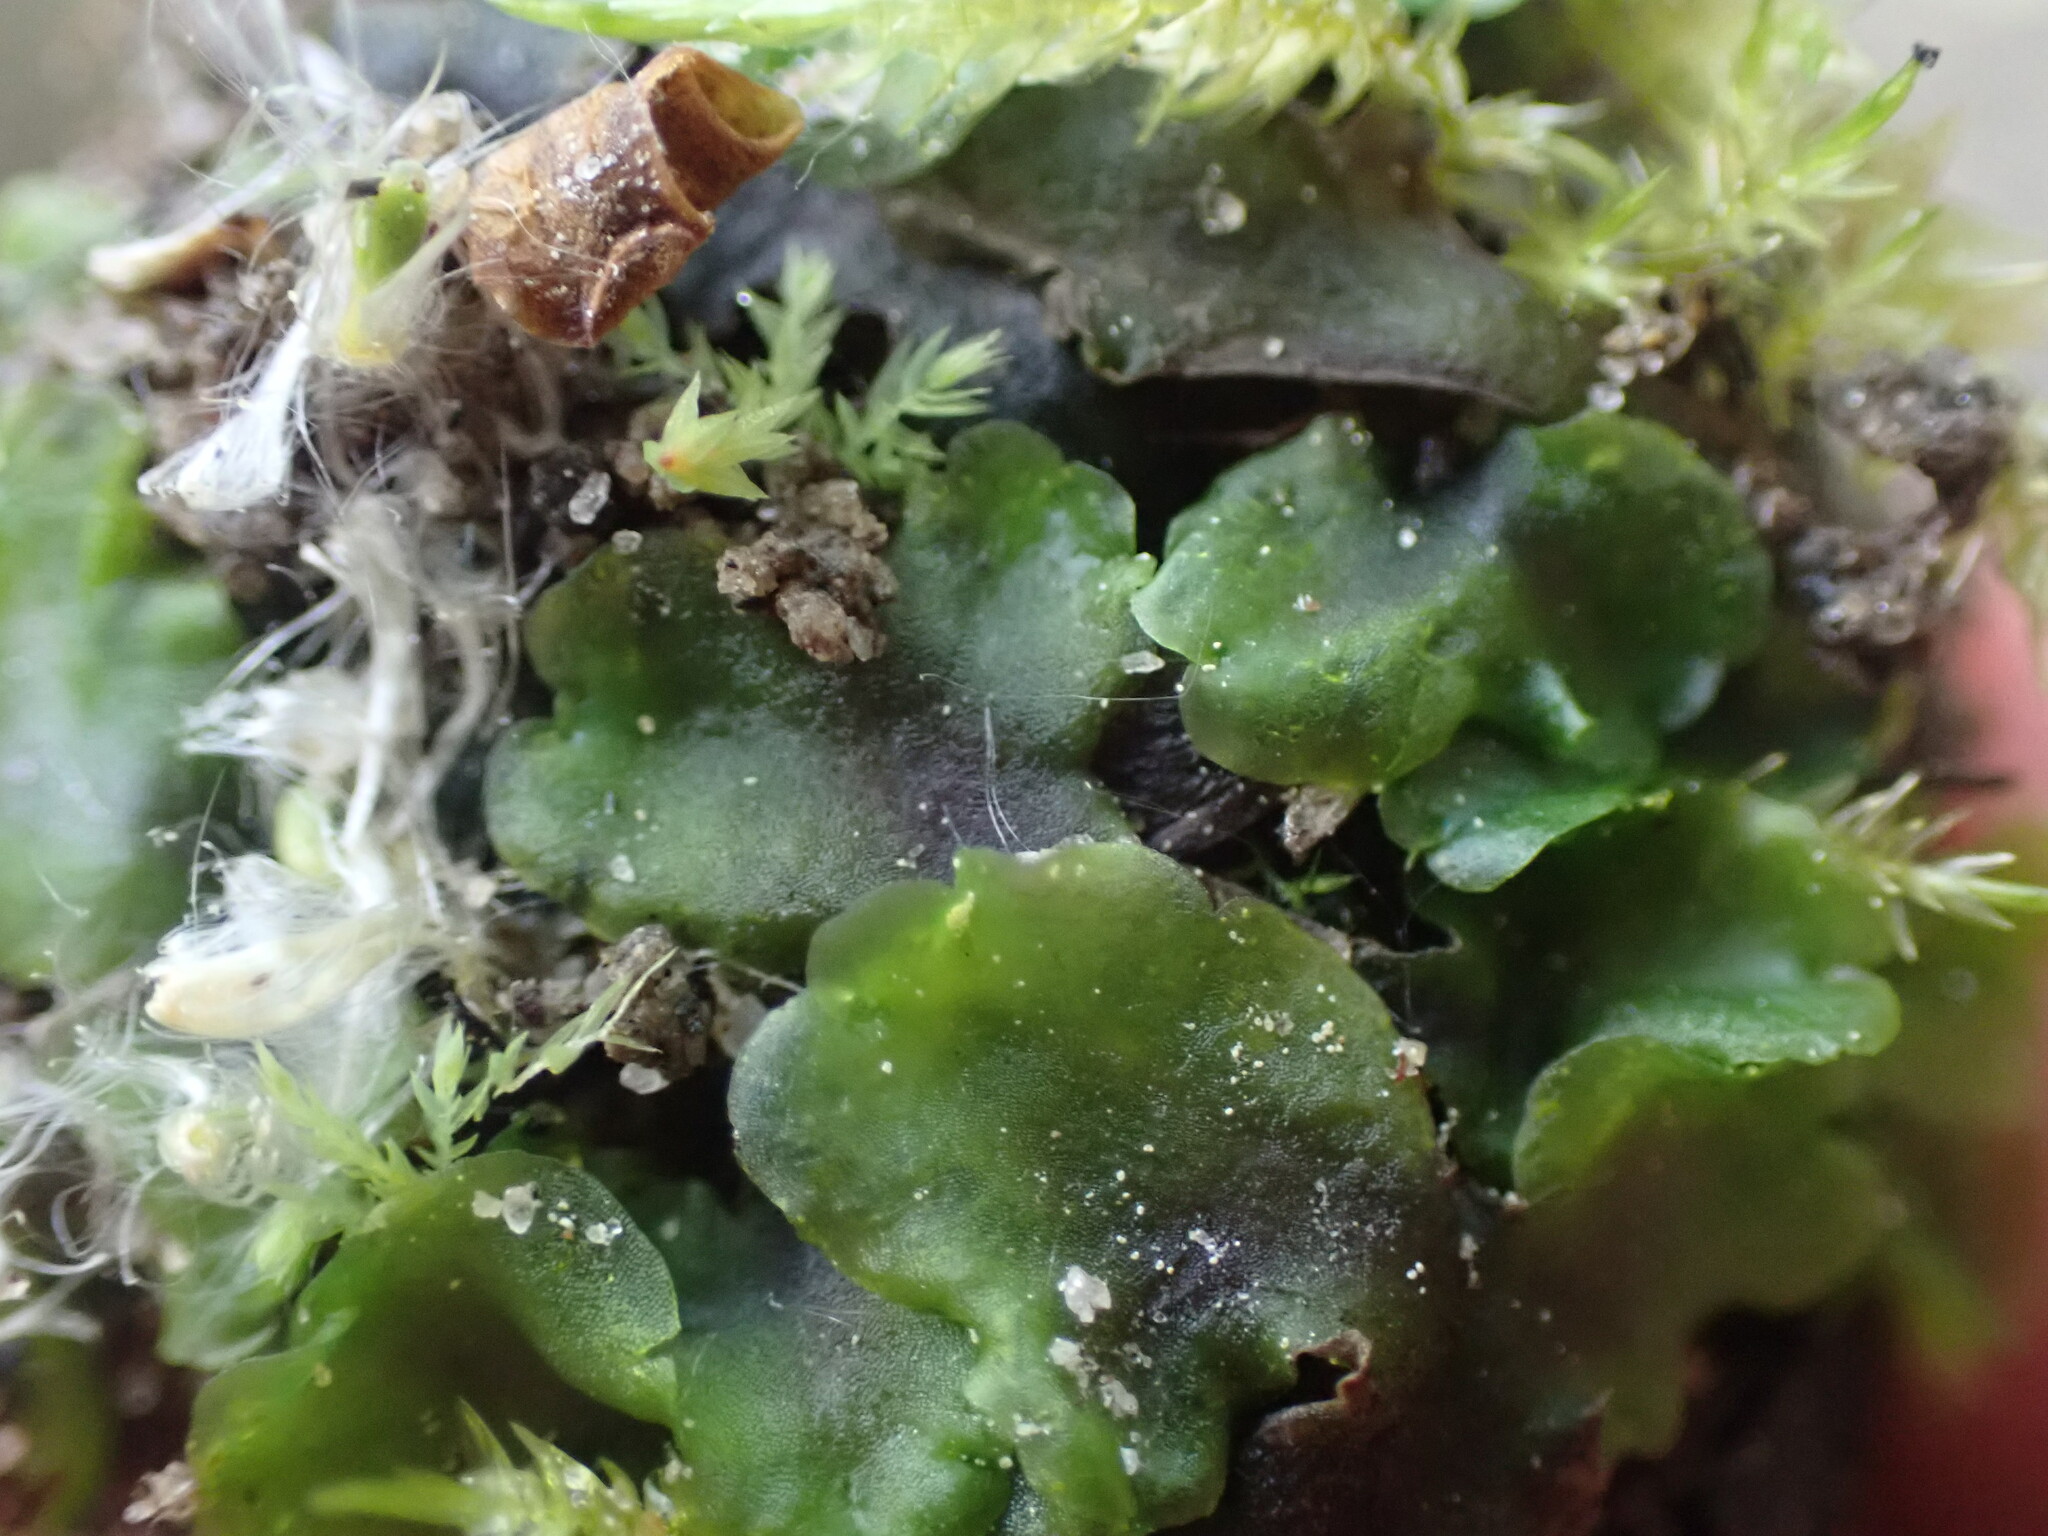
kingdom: Plantae
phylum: Marchantiophyta
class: Jungermanniopsida
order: Pelliales
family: Pelliaceae
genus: Pellia
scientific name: Pellia neesiana
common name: Nees  pellia
